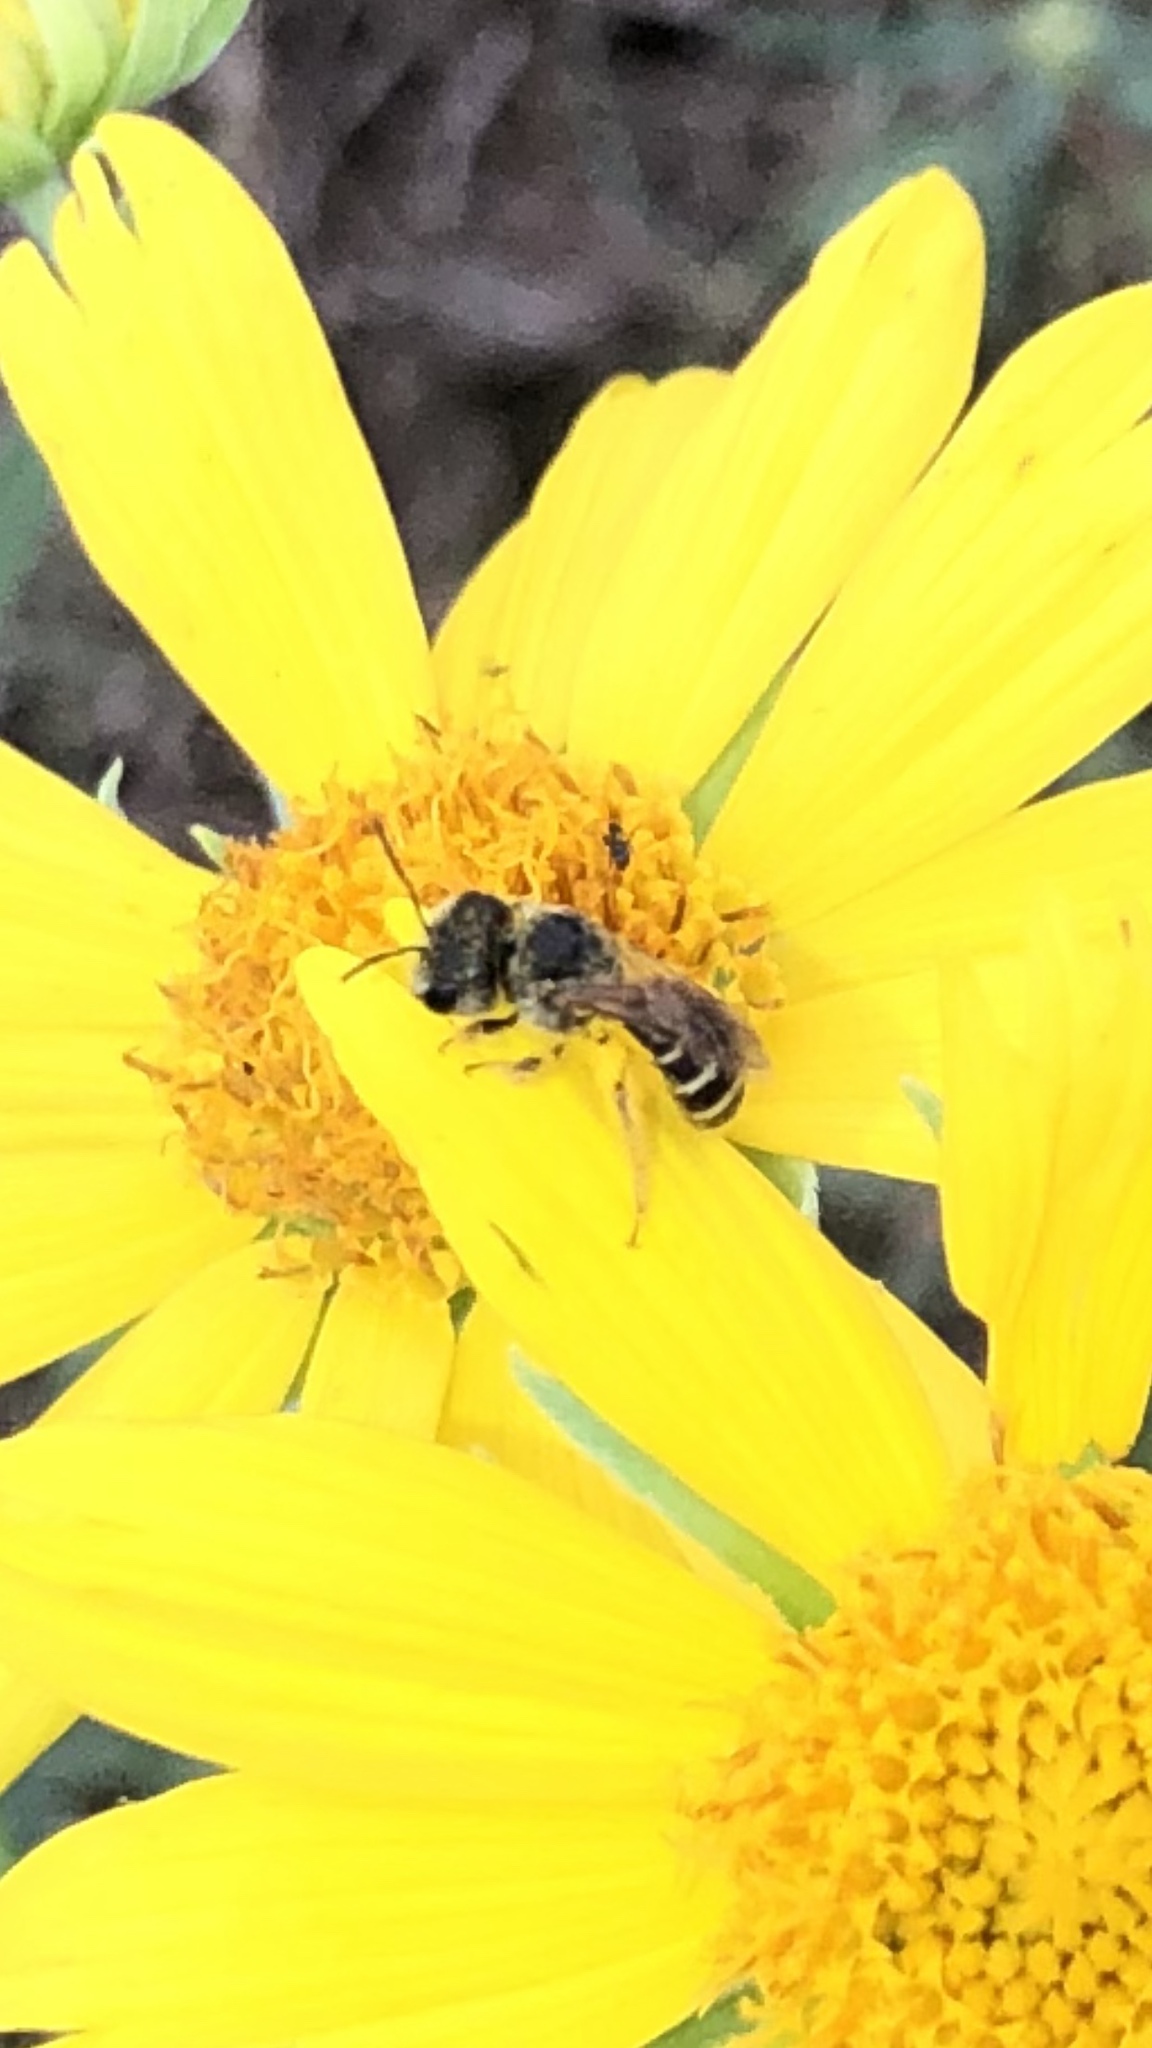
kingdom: Animalia
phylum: Arthropoda
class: Insecta
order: Hymenoptera
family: Halictidae
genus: Halictus
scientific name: Halictus ligatus
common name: Ligated furrow bee
